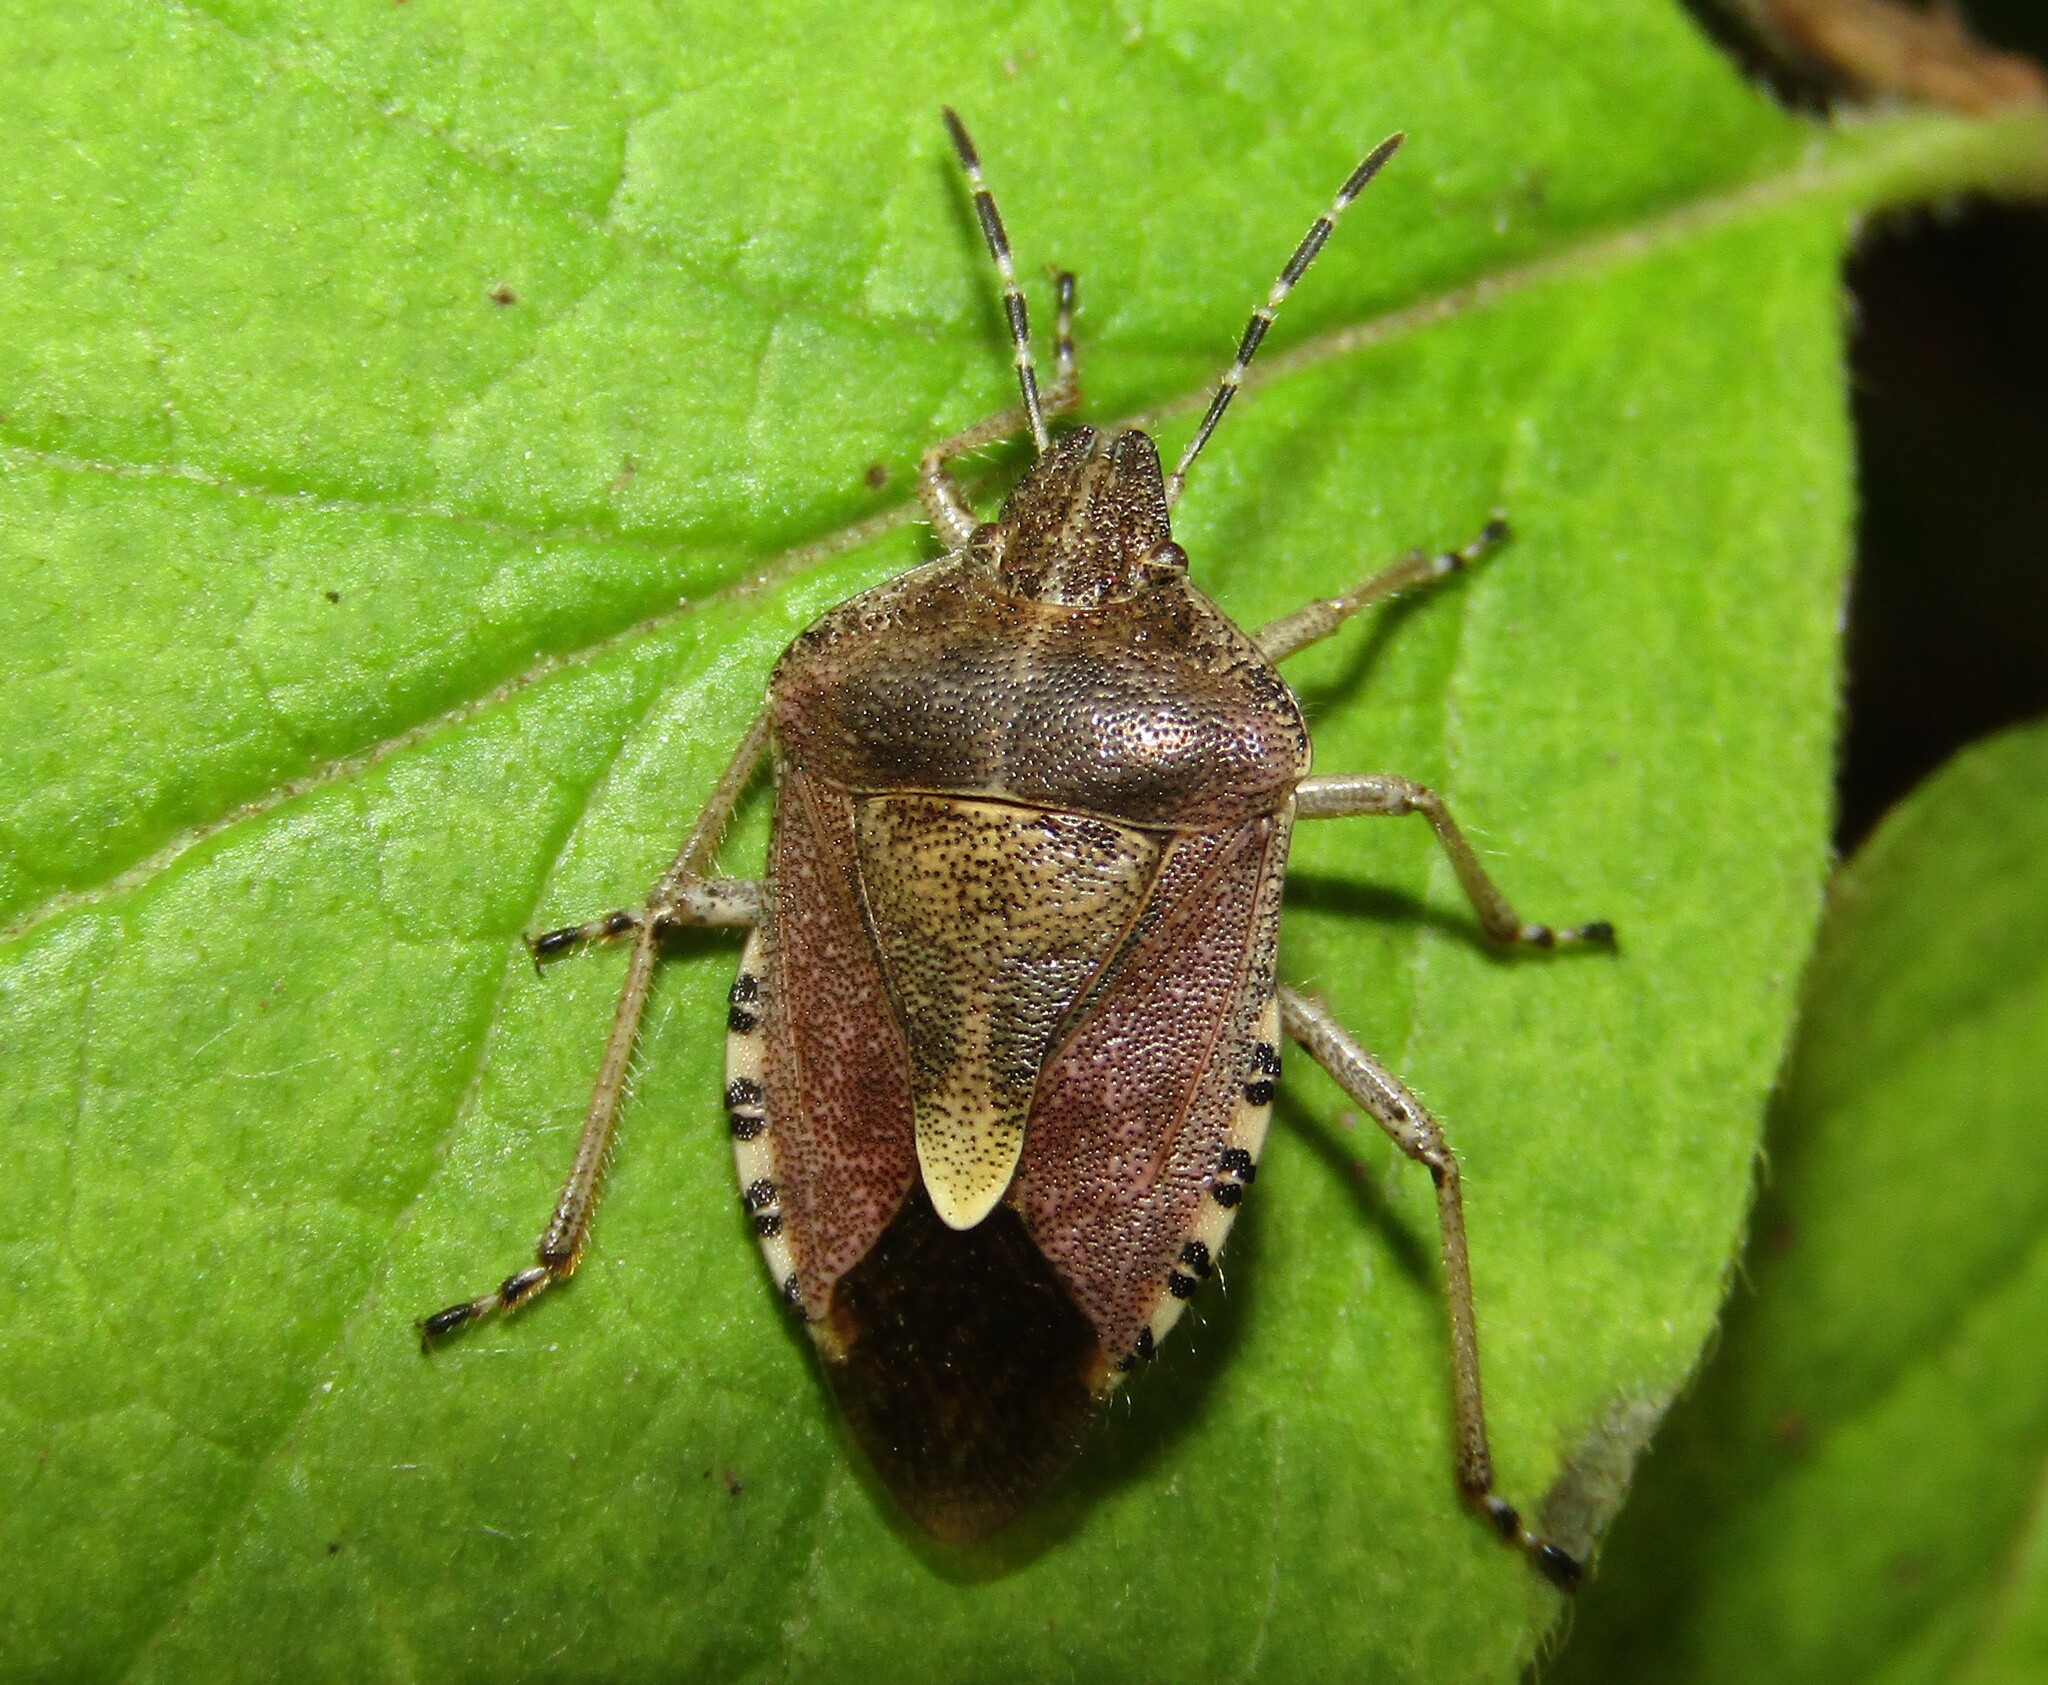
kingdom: Animalia
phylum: Arthropoda
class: Insecta
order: Hemiptera
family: Pentatomidae
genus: Dolycoris
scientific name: Dolycoris baccarum
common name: Sloe bug
